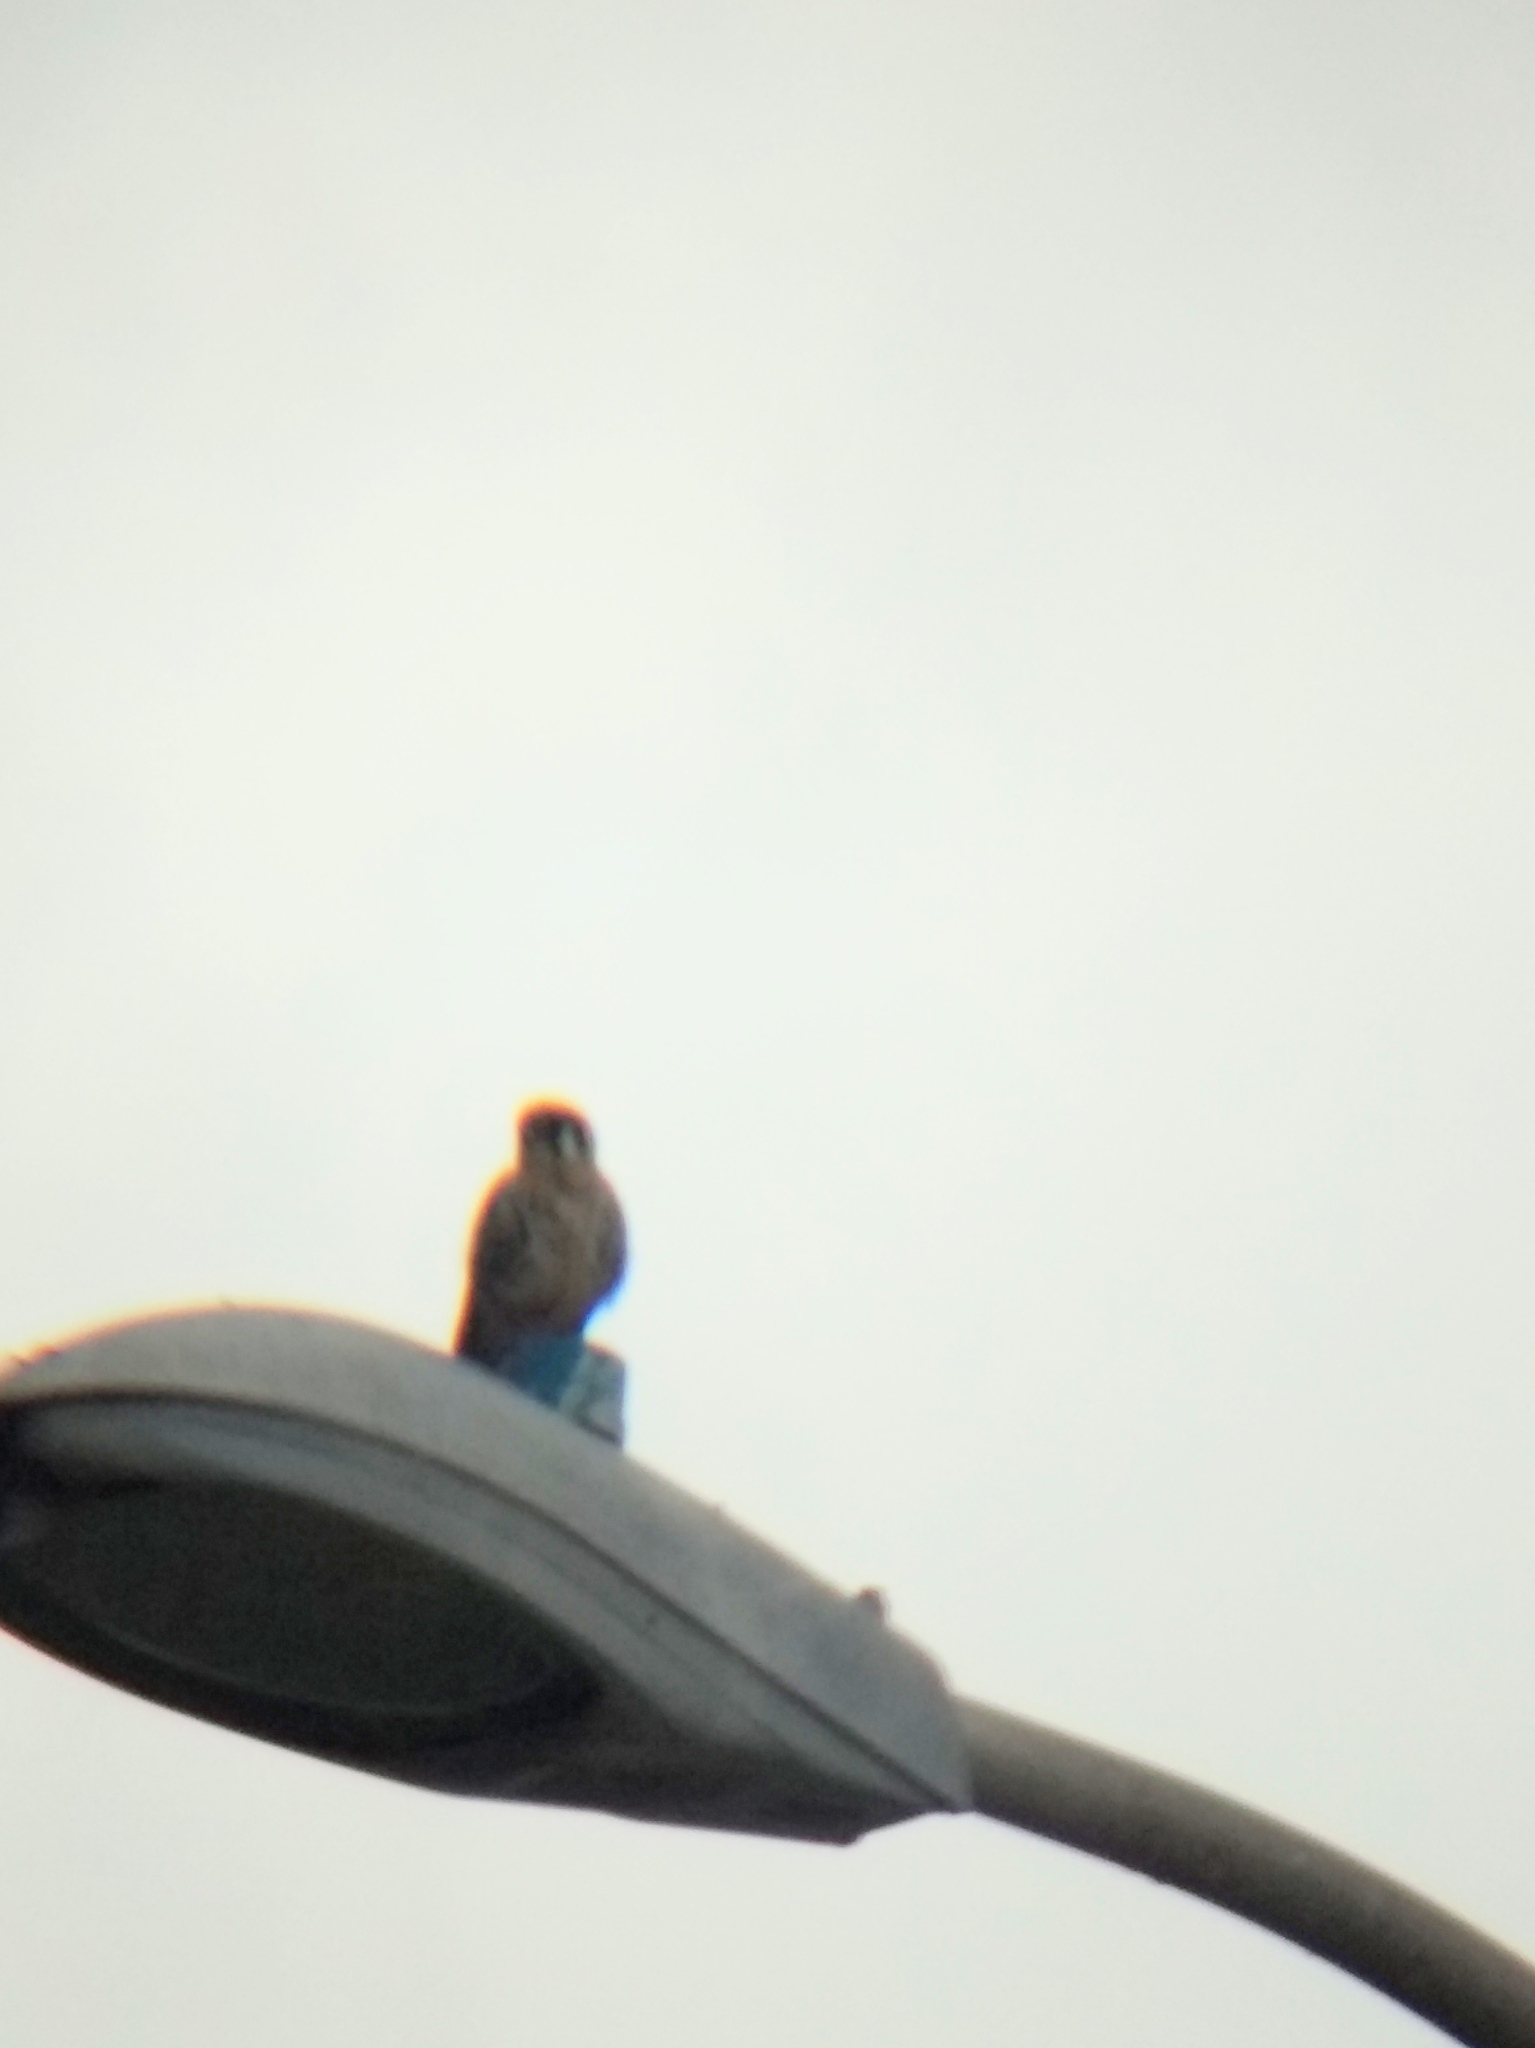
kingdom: Animalia
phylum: Chordata
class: Aves
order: Falconiformes
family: Falconidae
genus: Falco
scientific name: Falco sparverius
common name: American kestrel
